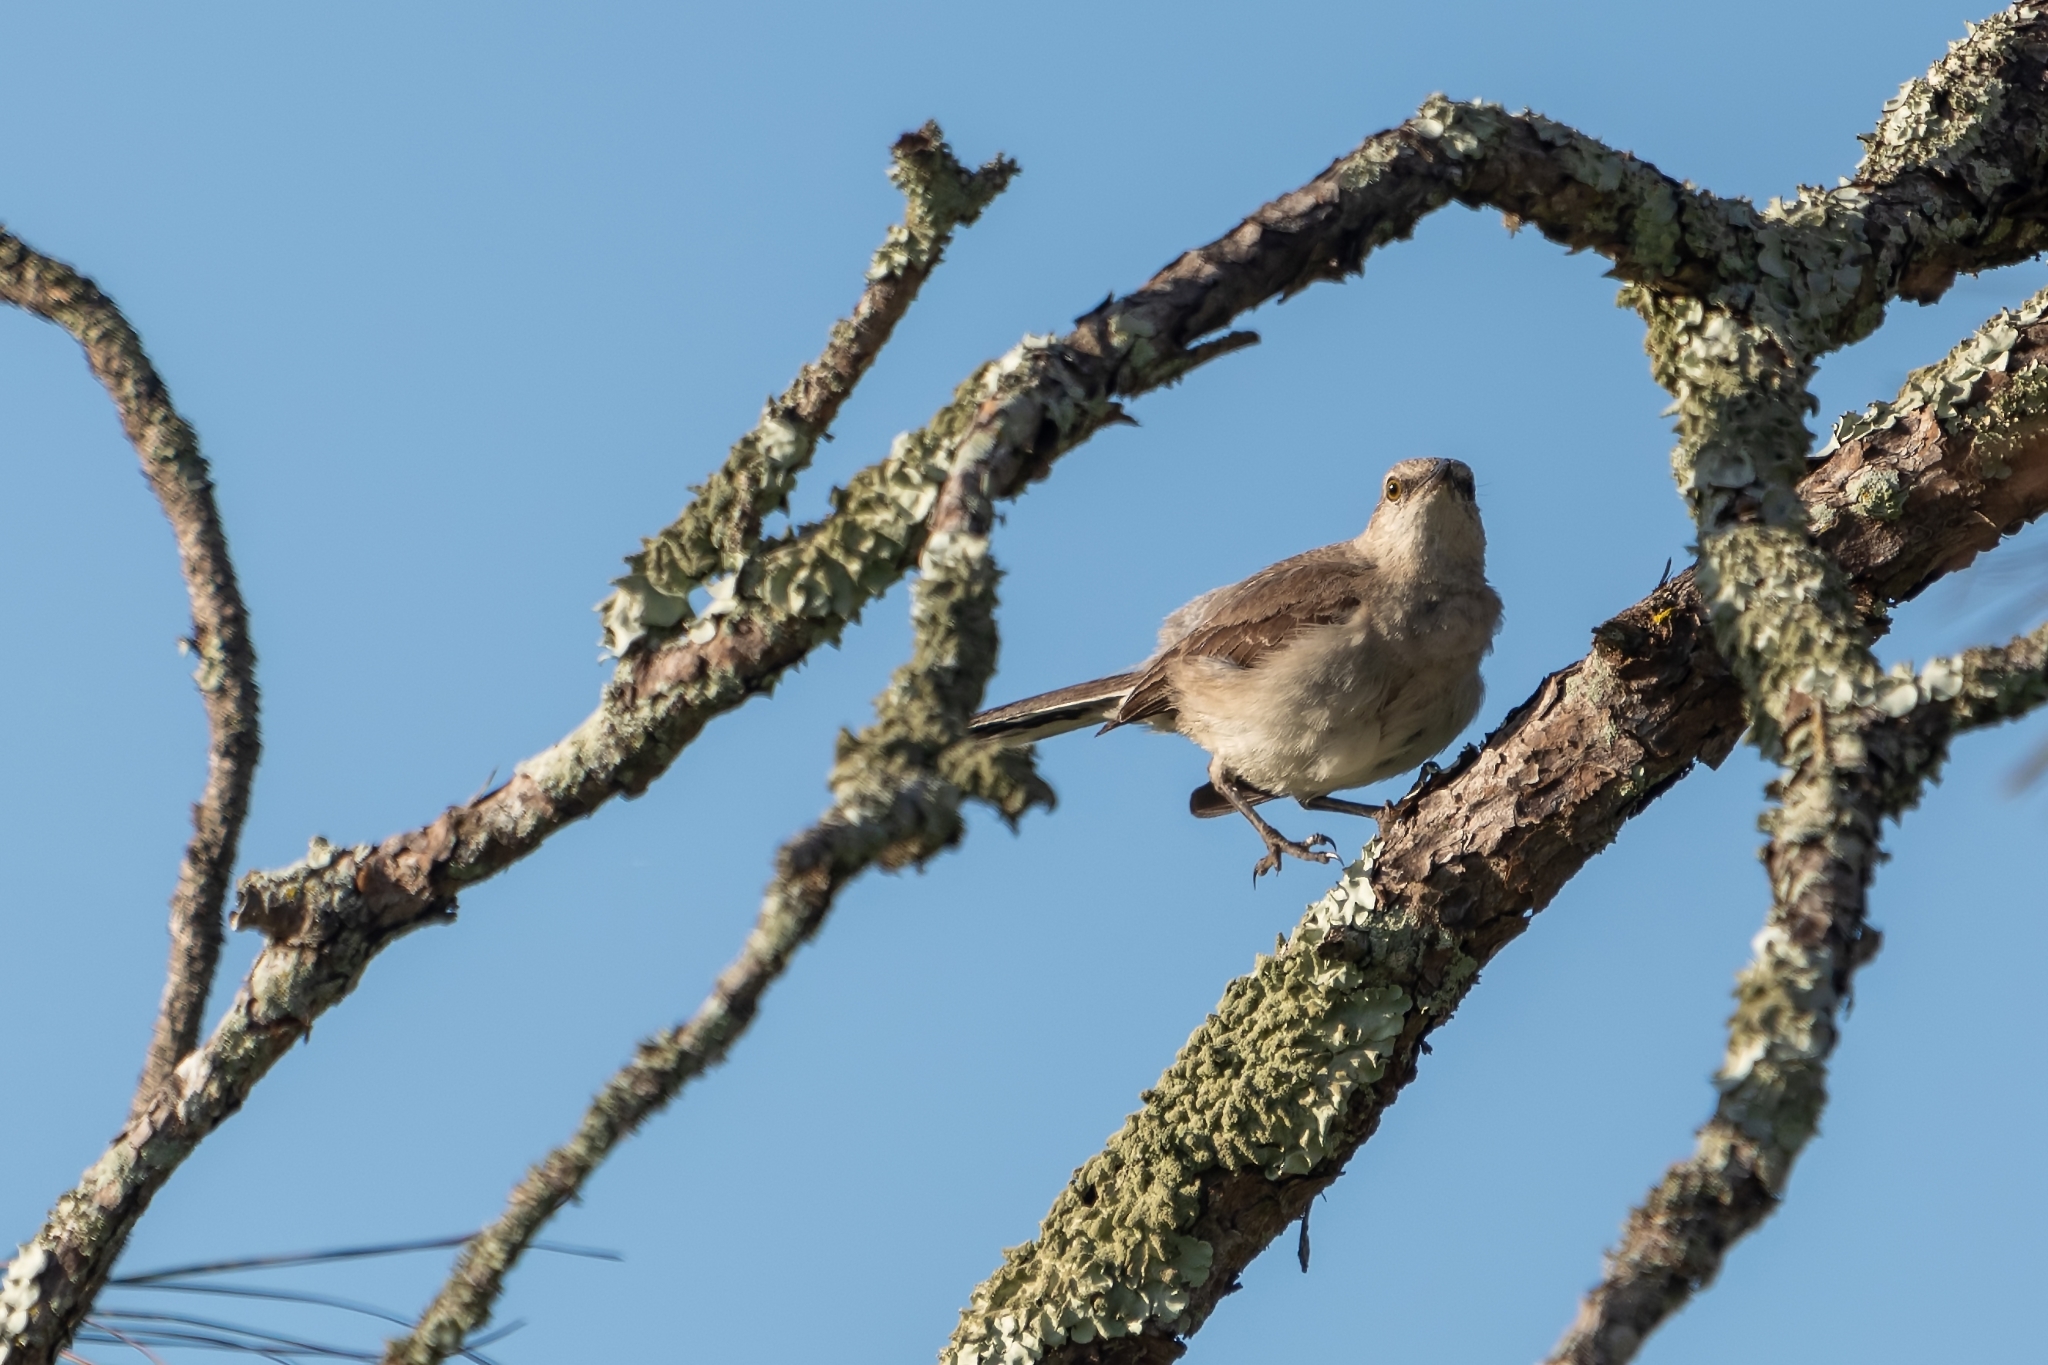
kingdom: Animalia
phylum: Chordata
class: Aves
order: Passeriformes
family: Mimidae
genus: Mimus
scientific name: Mimus polyglottos
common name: Northern mockingbird
